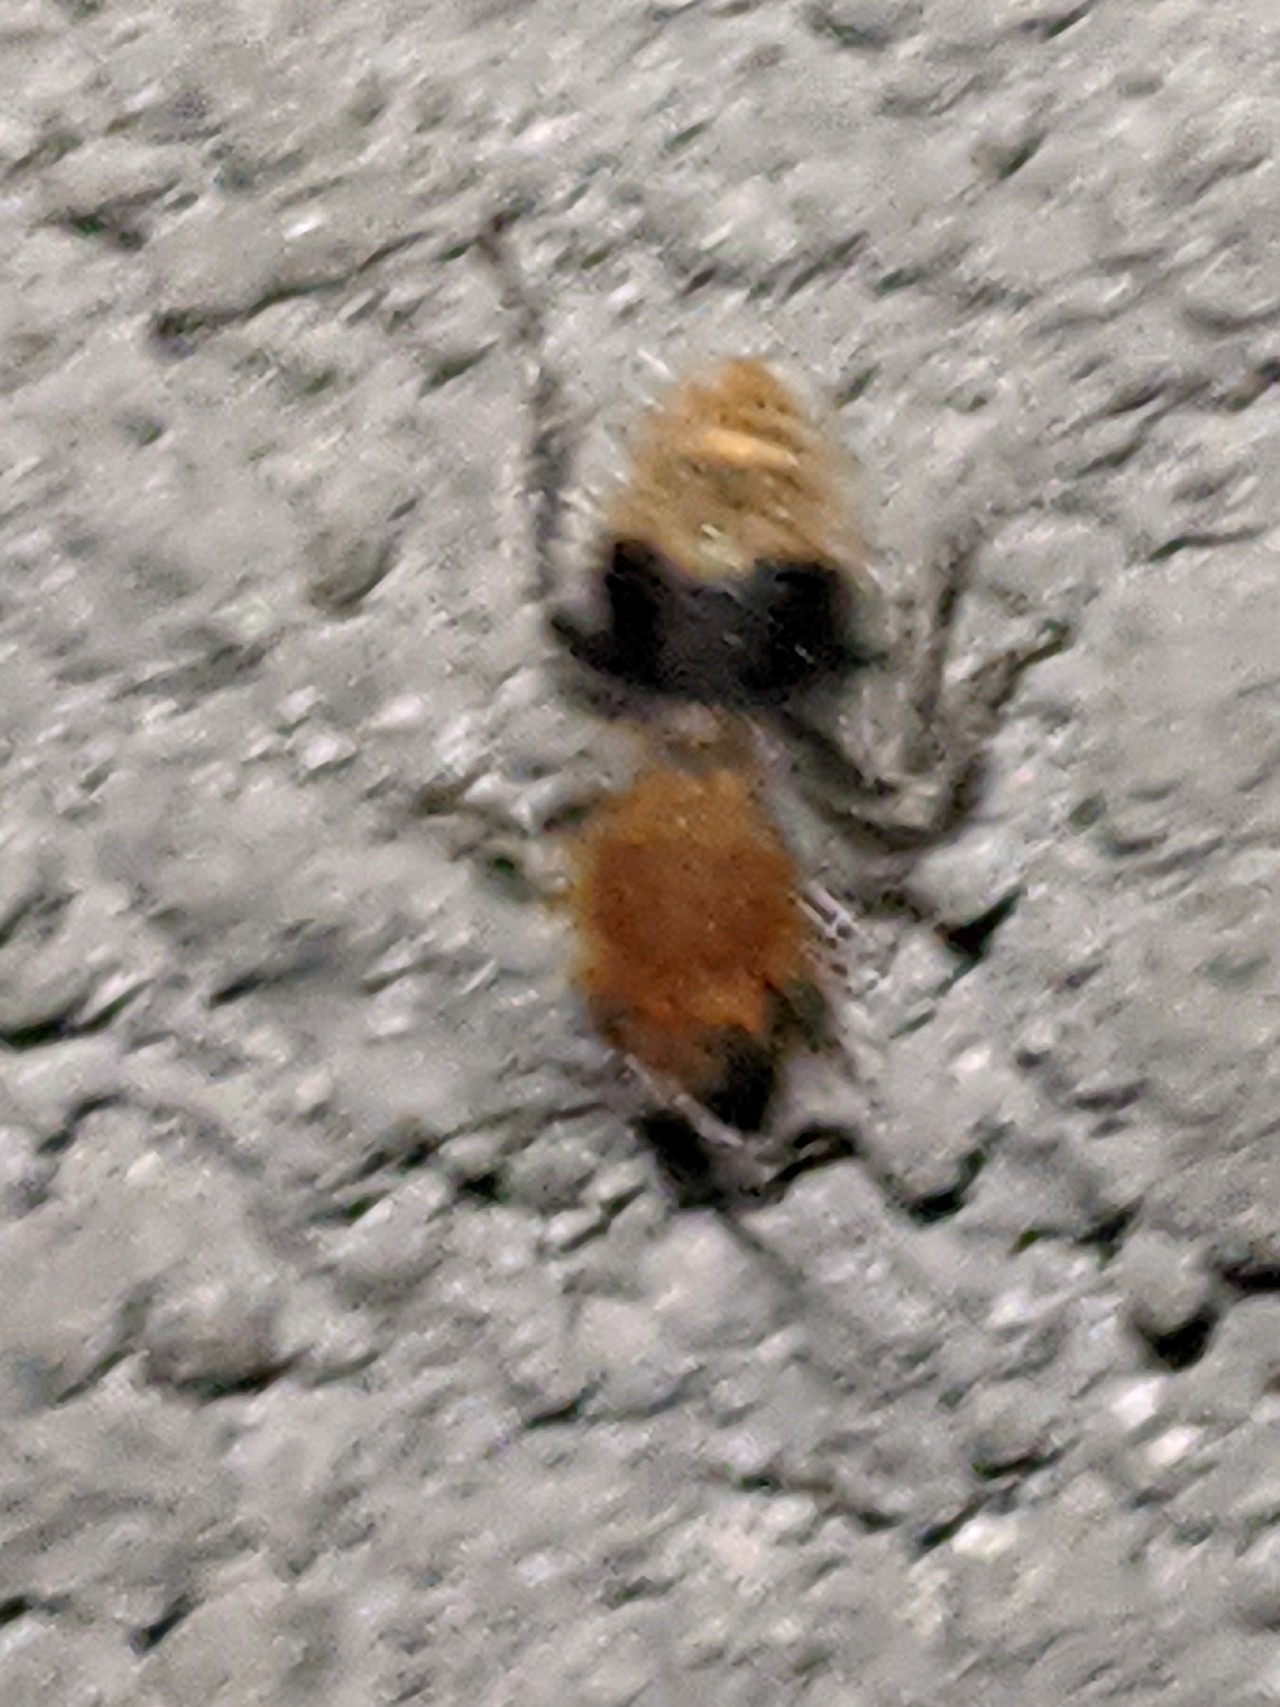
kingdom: Animalia
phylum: Arthropoda
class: Insecta
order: Hymenoptera
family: Mutillidae
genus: Sphaeropthalma
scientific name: Sphaeropthalma marpesia
